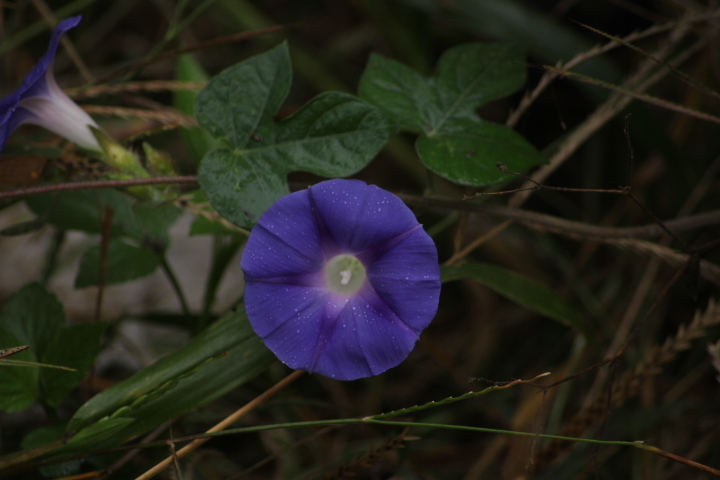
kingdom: Plantae
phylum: Tracheophyta
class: Magnoliopsida
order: Solanales
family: Convolvulaceae
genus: Ipomoea
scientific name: Ipomoea purpurea
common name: Common morning-glory
